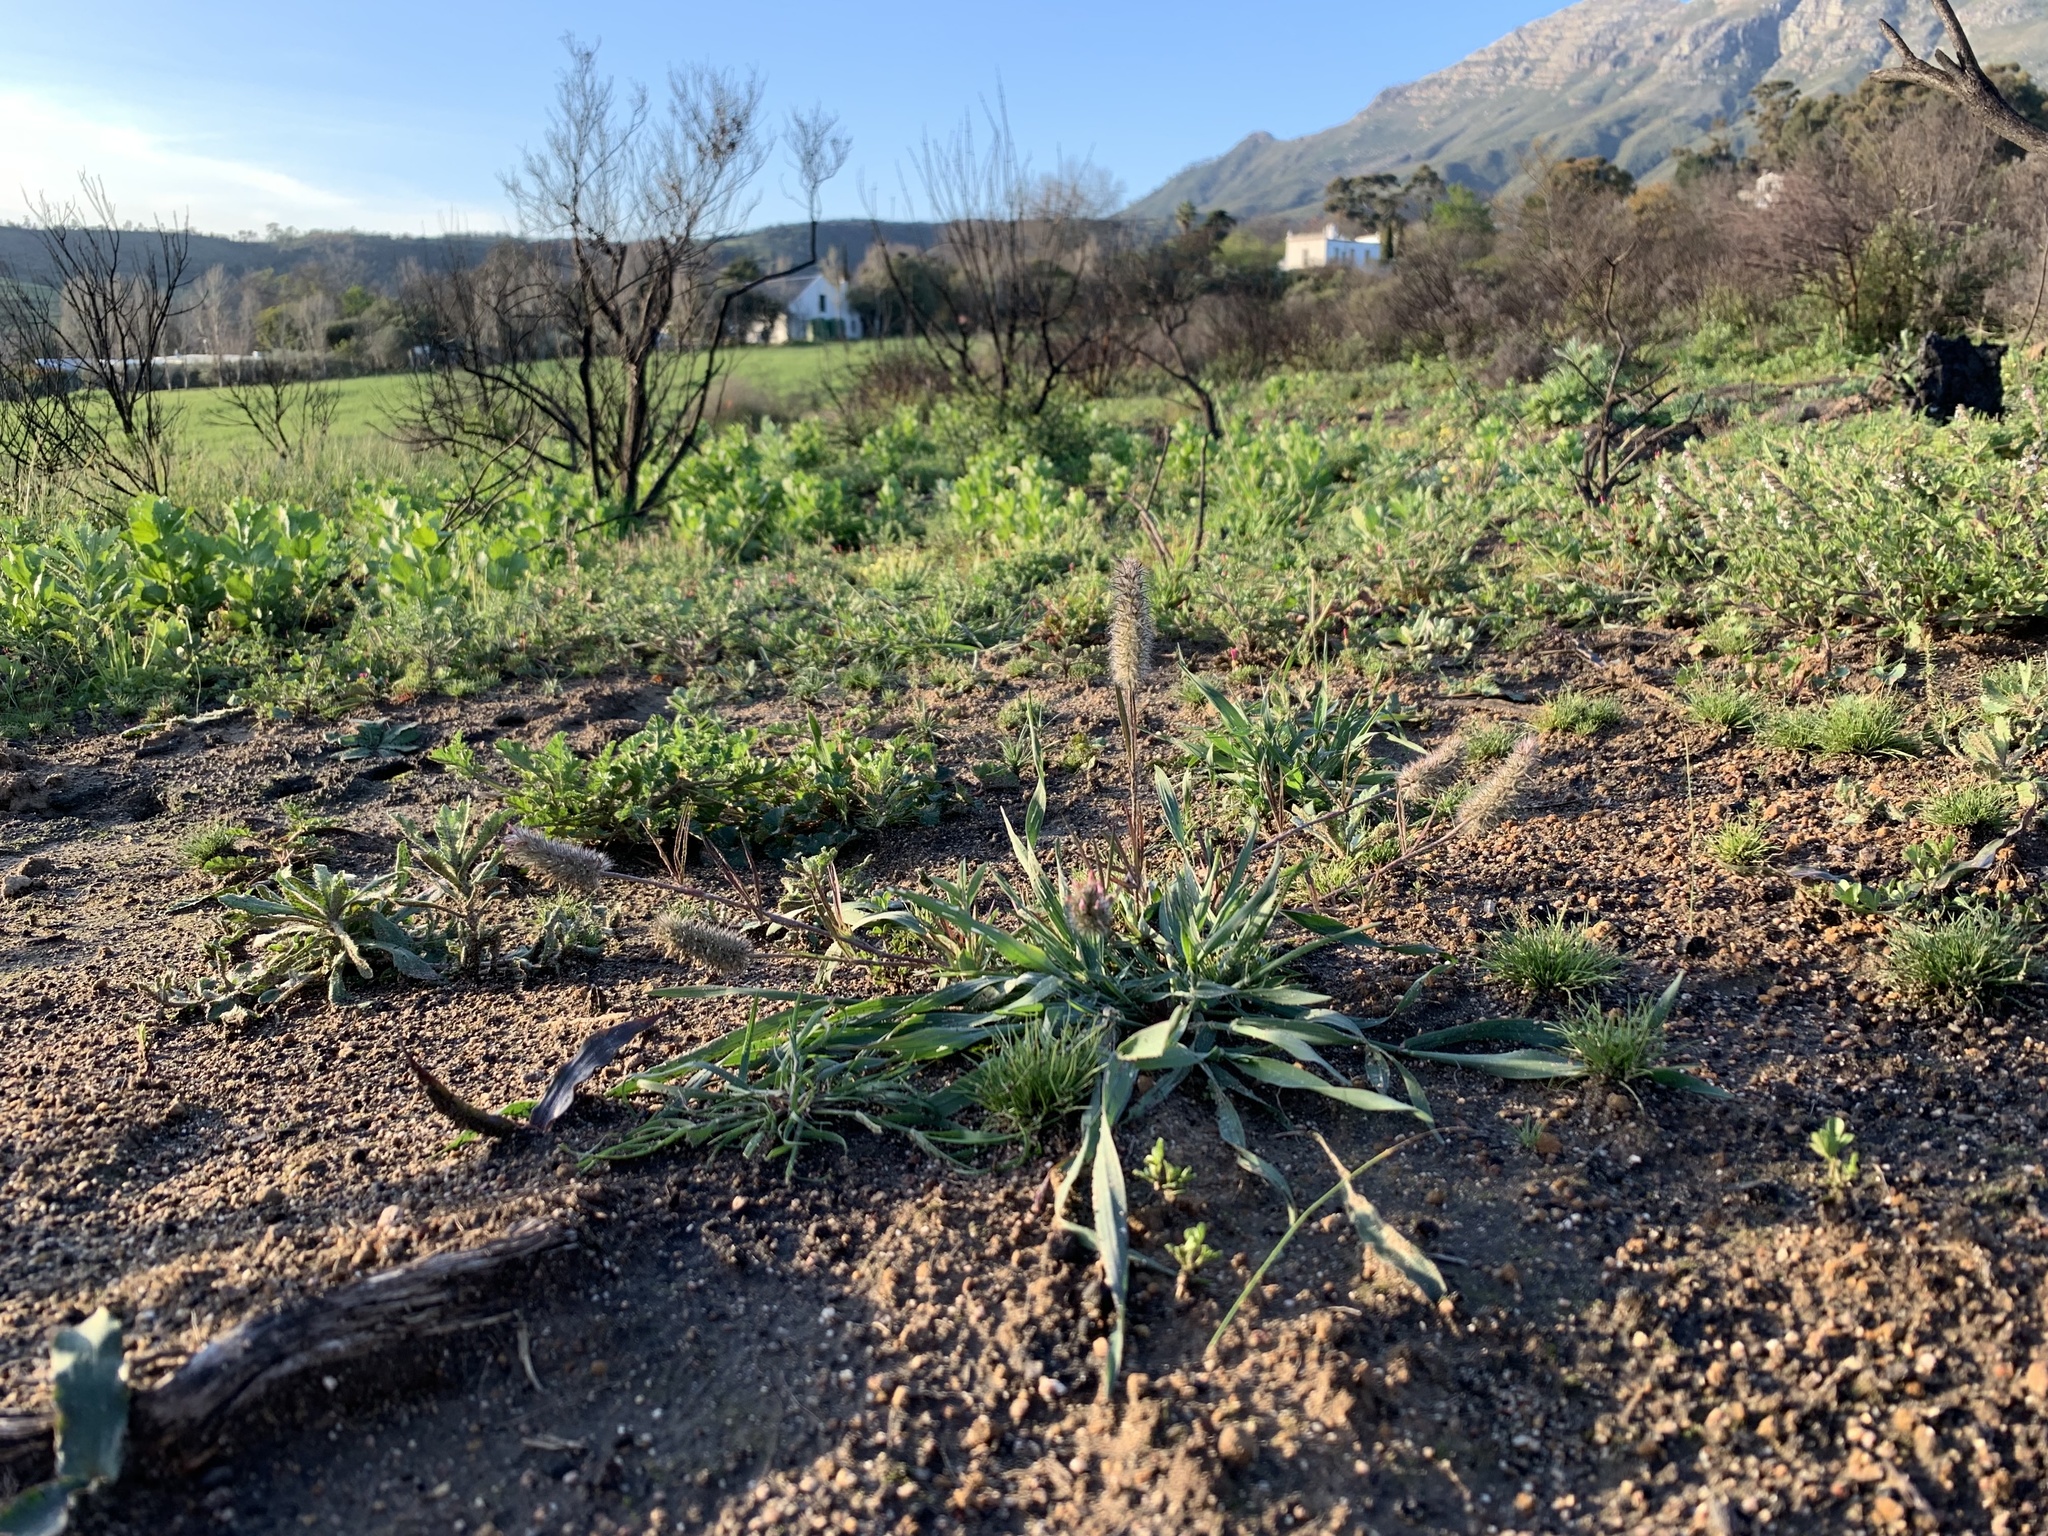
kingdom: Plantae
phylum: Tracheophyta
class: Magnoliopsida
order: Fabales
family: Fabaceae
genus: Trifolium
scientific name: Trifolium angustifolium
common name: Narrow clover
